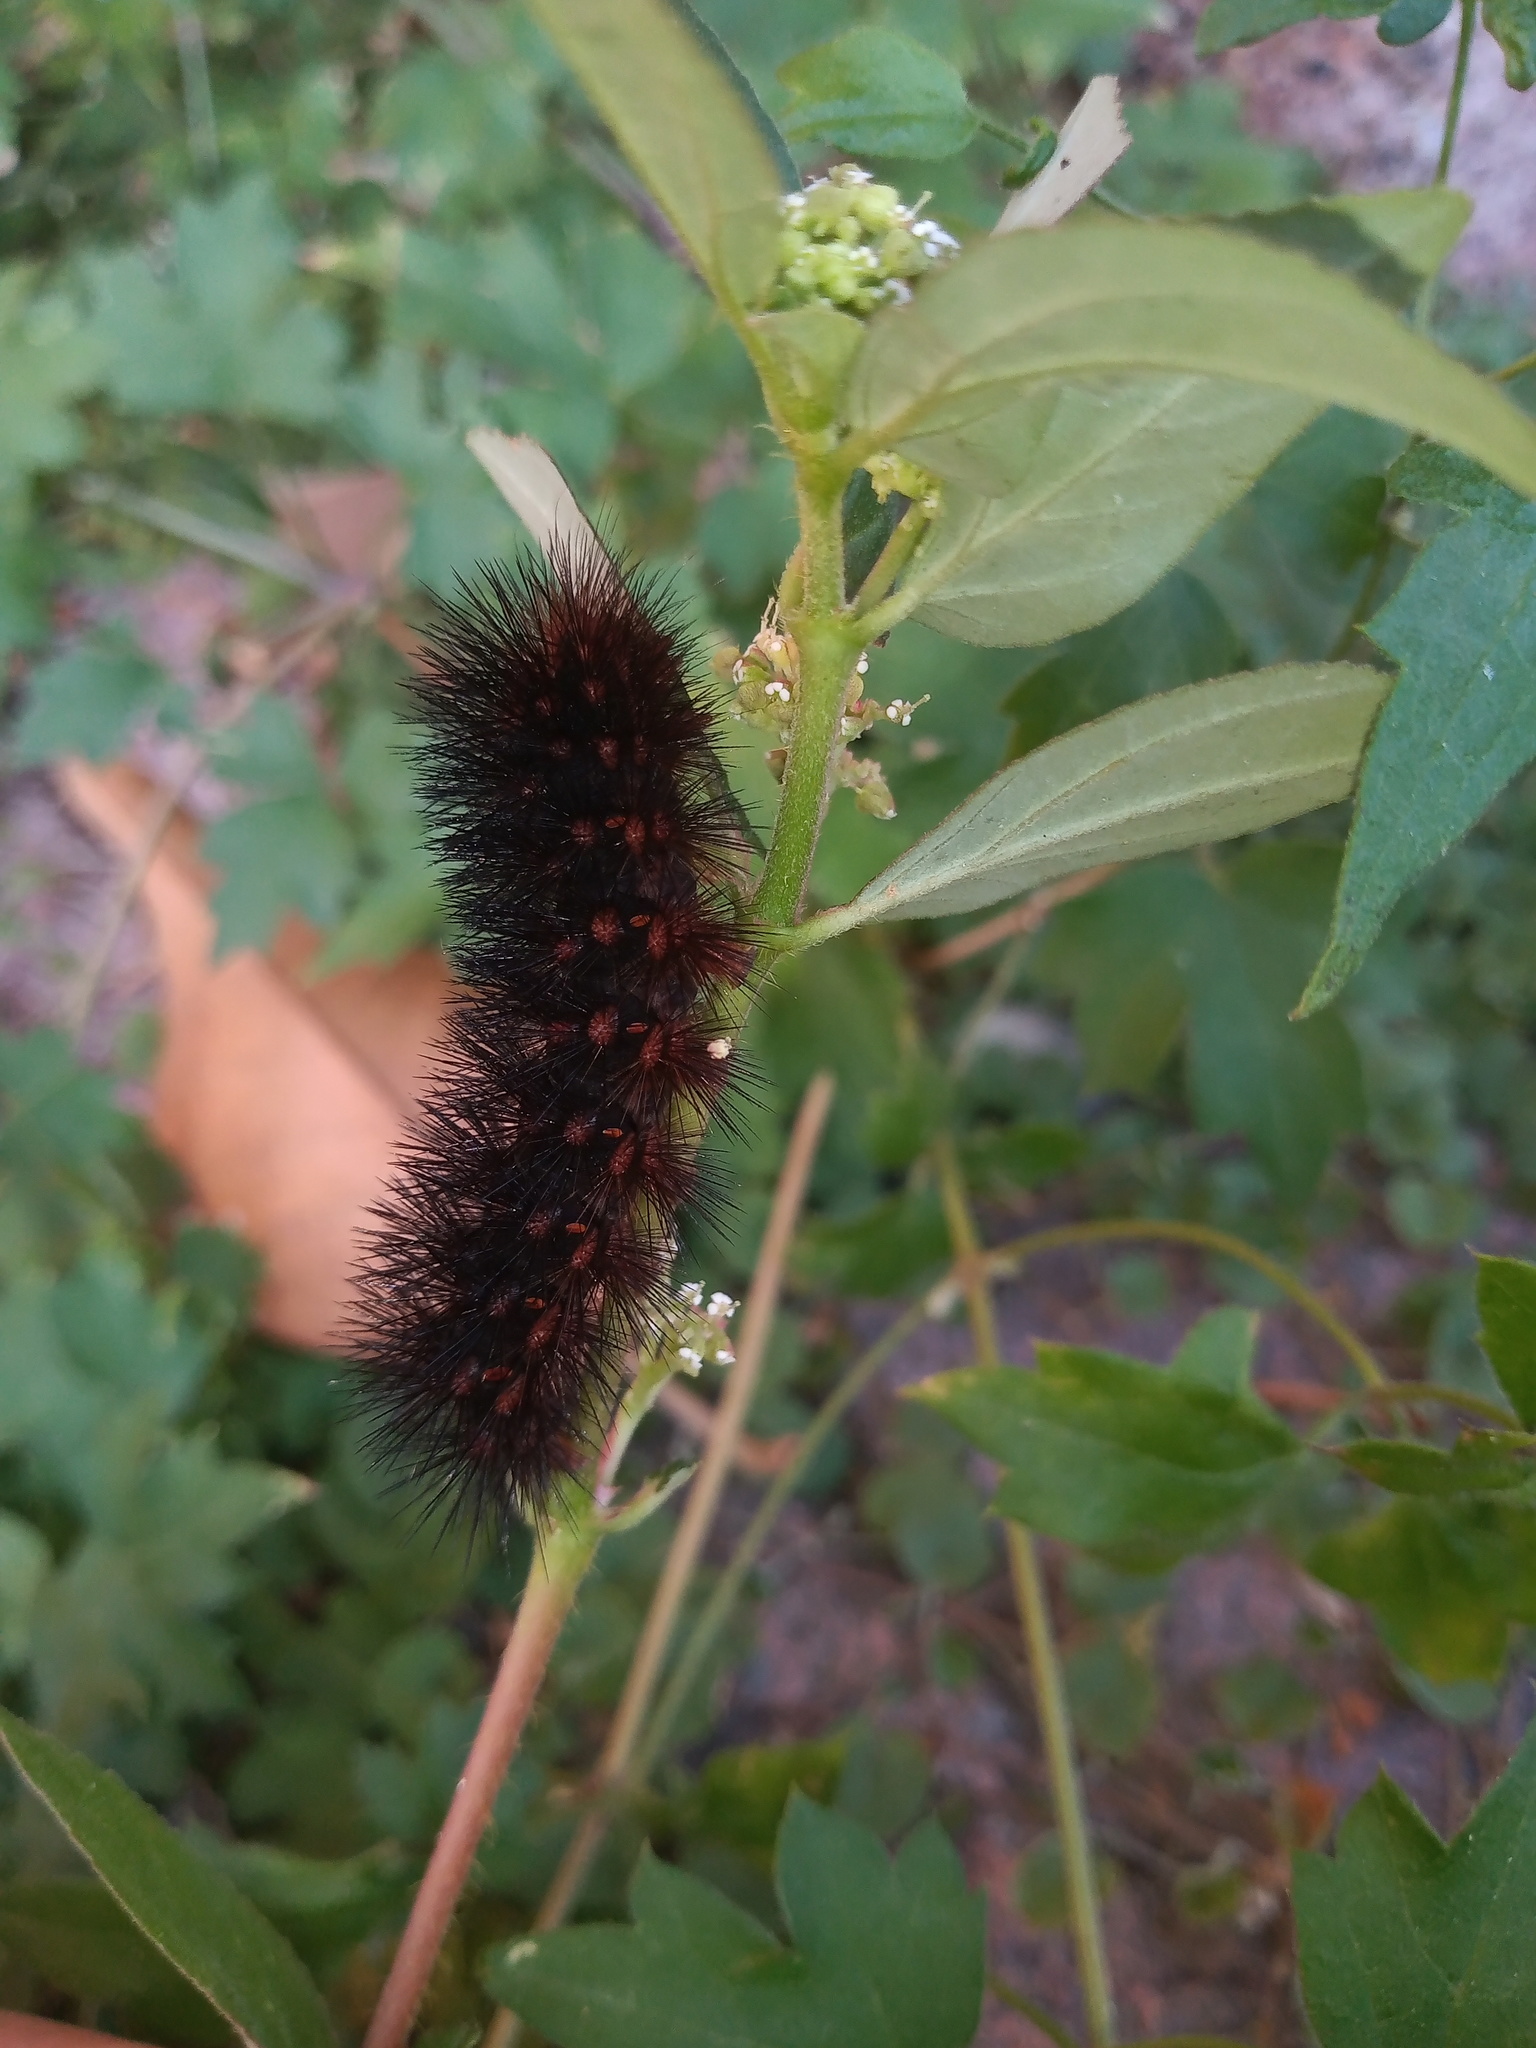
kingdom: Animalia
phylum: Arthropoda
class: Insecta
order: Lepidoptera
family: Erebidae
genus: Hypercompe
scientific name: Hypercompe scribonia
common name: Giant leopard moth
